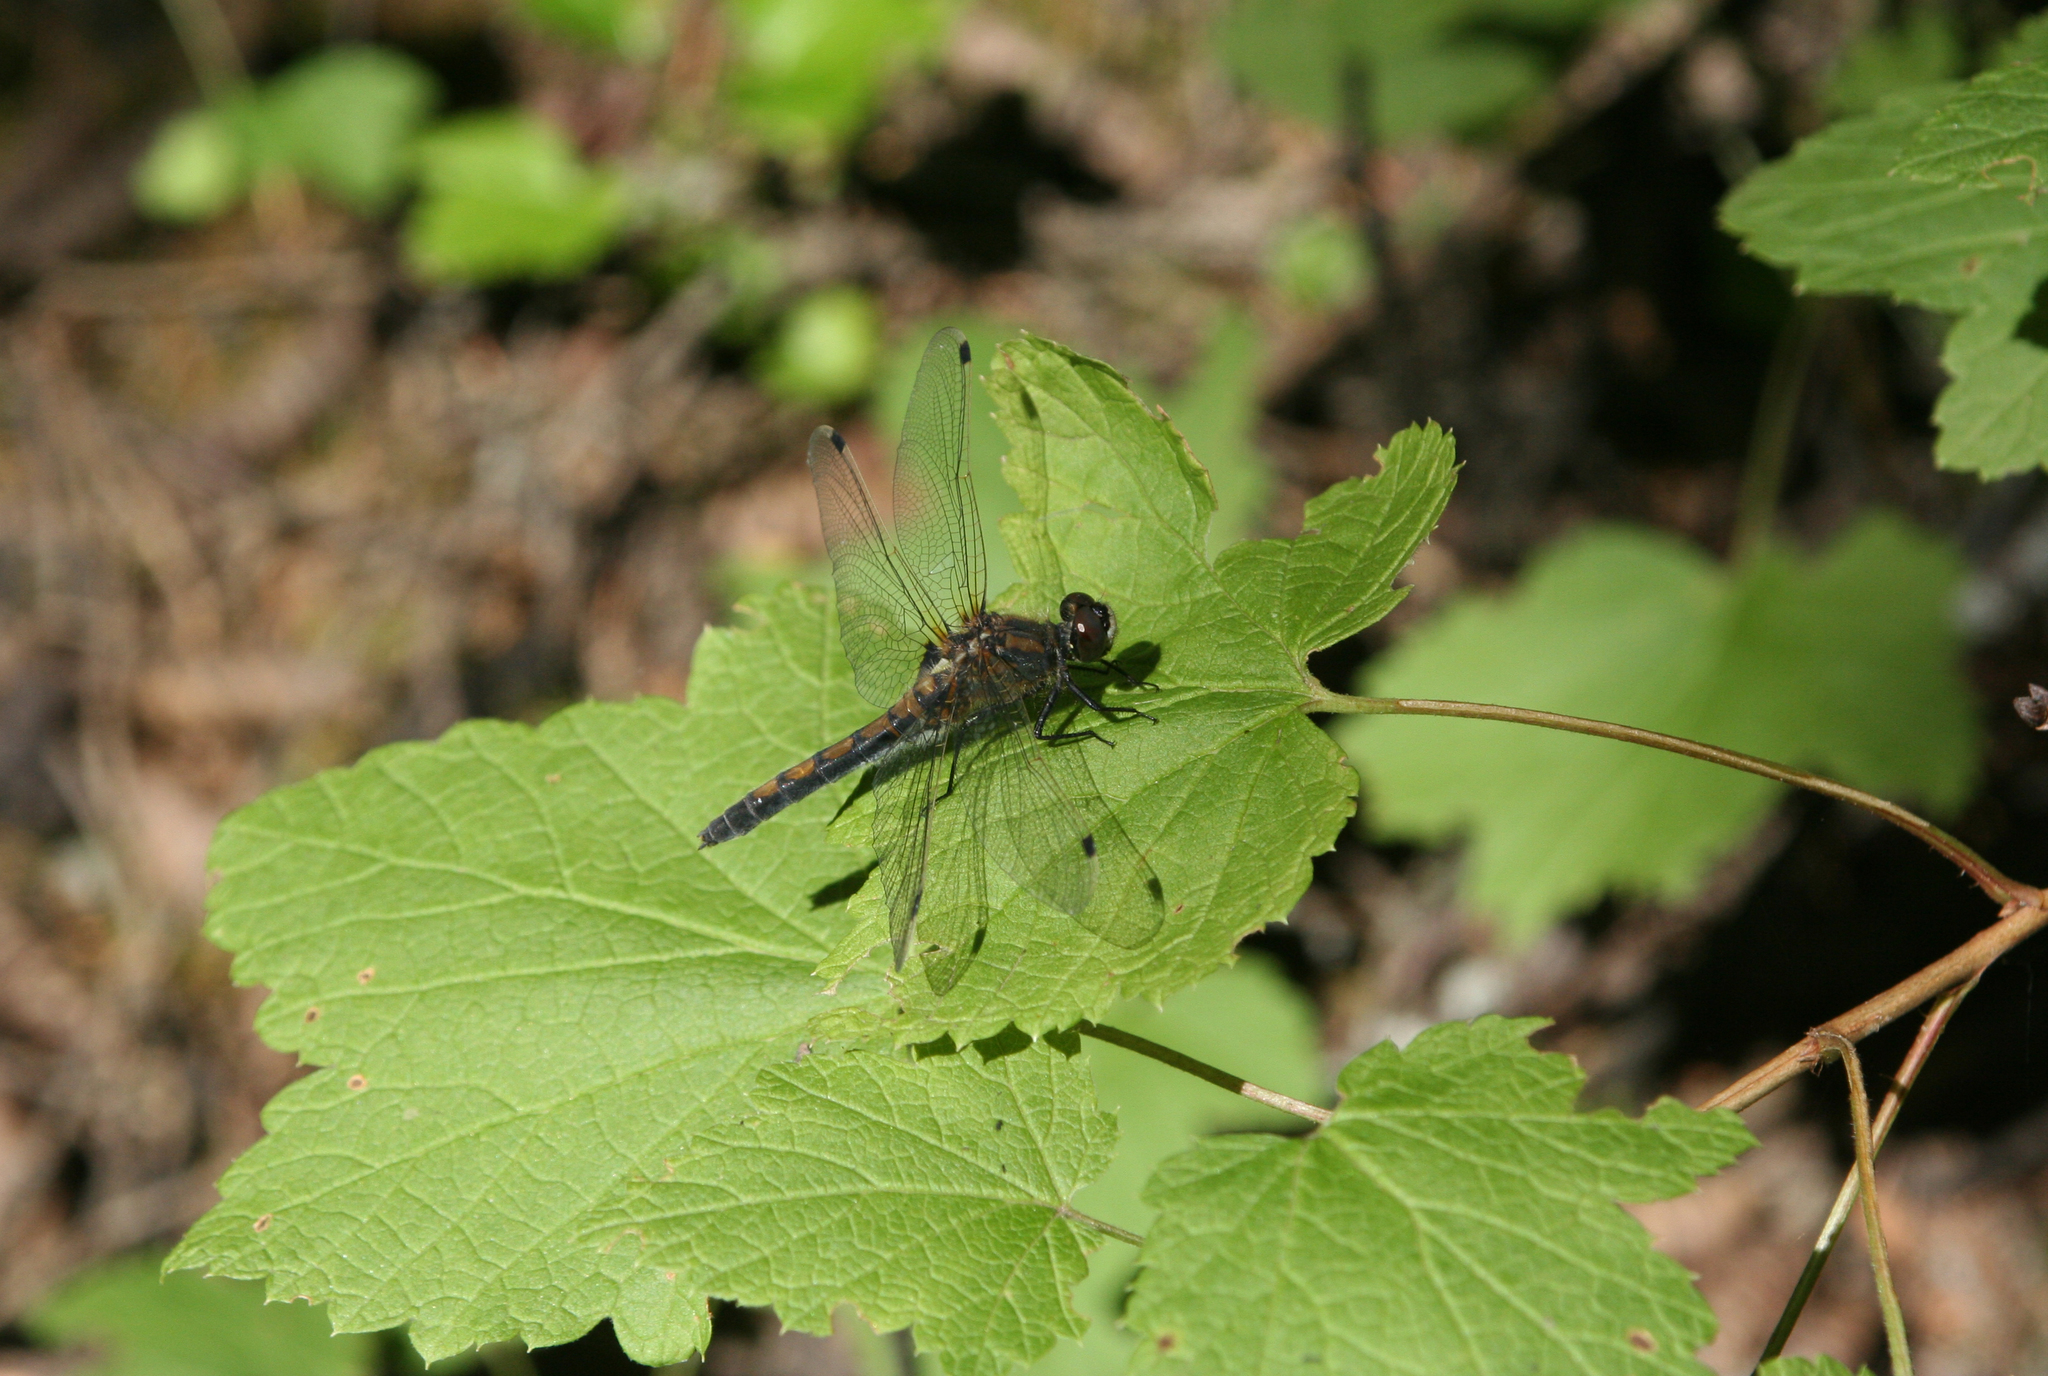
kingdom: Animalia
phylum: Arthropoda
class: Insecta
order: Odonata
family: Libellulidae
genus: Leucorrhinia
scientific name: Leucorrhinia rubicunda
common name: Ruby whiteface
